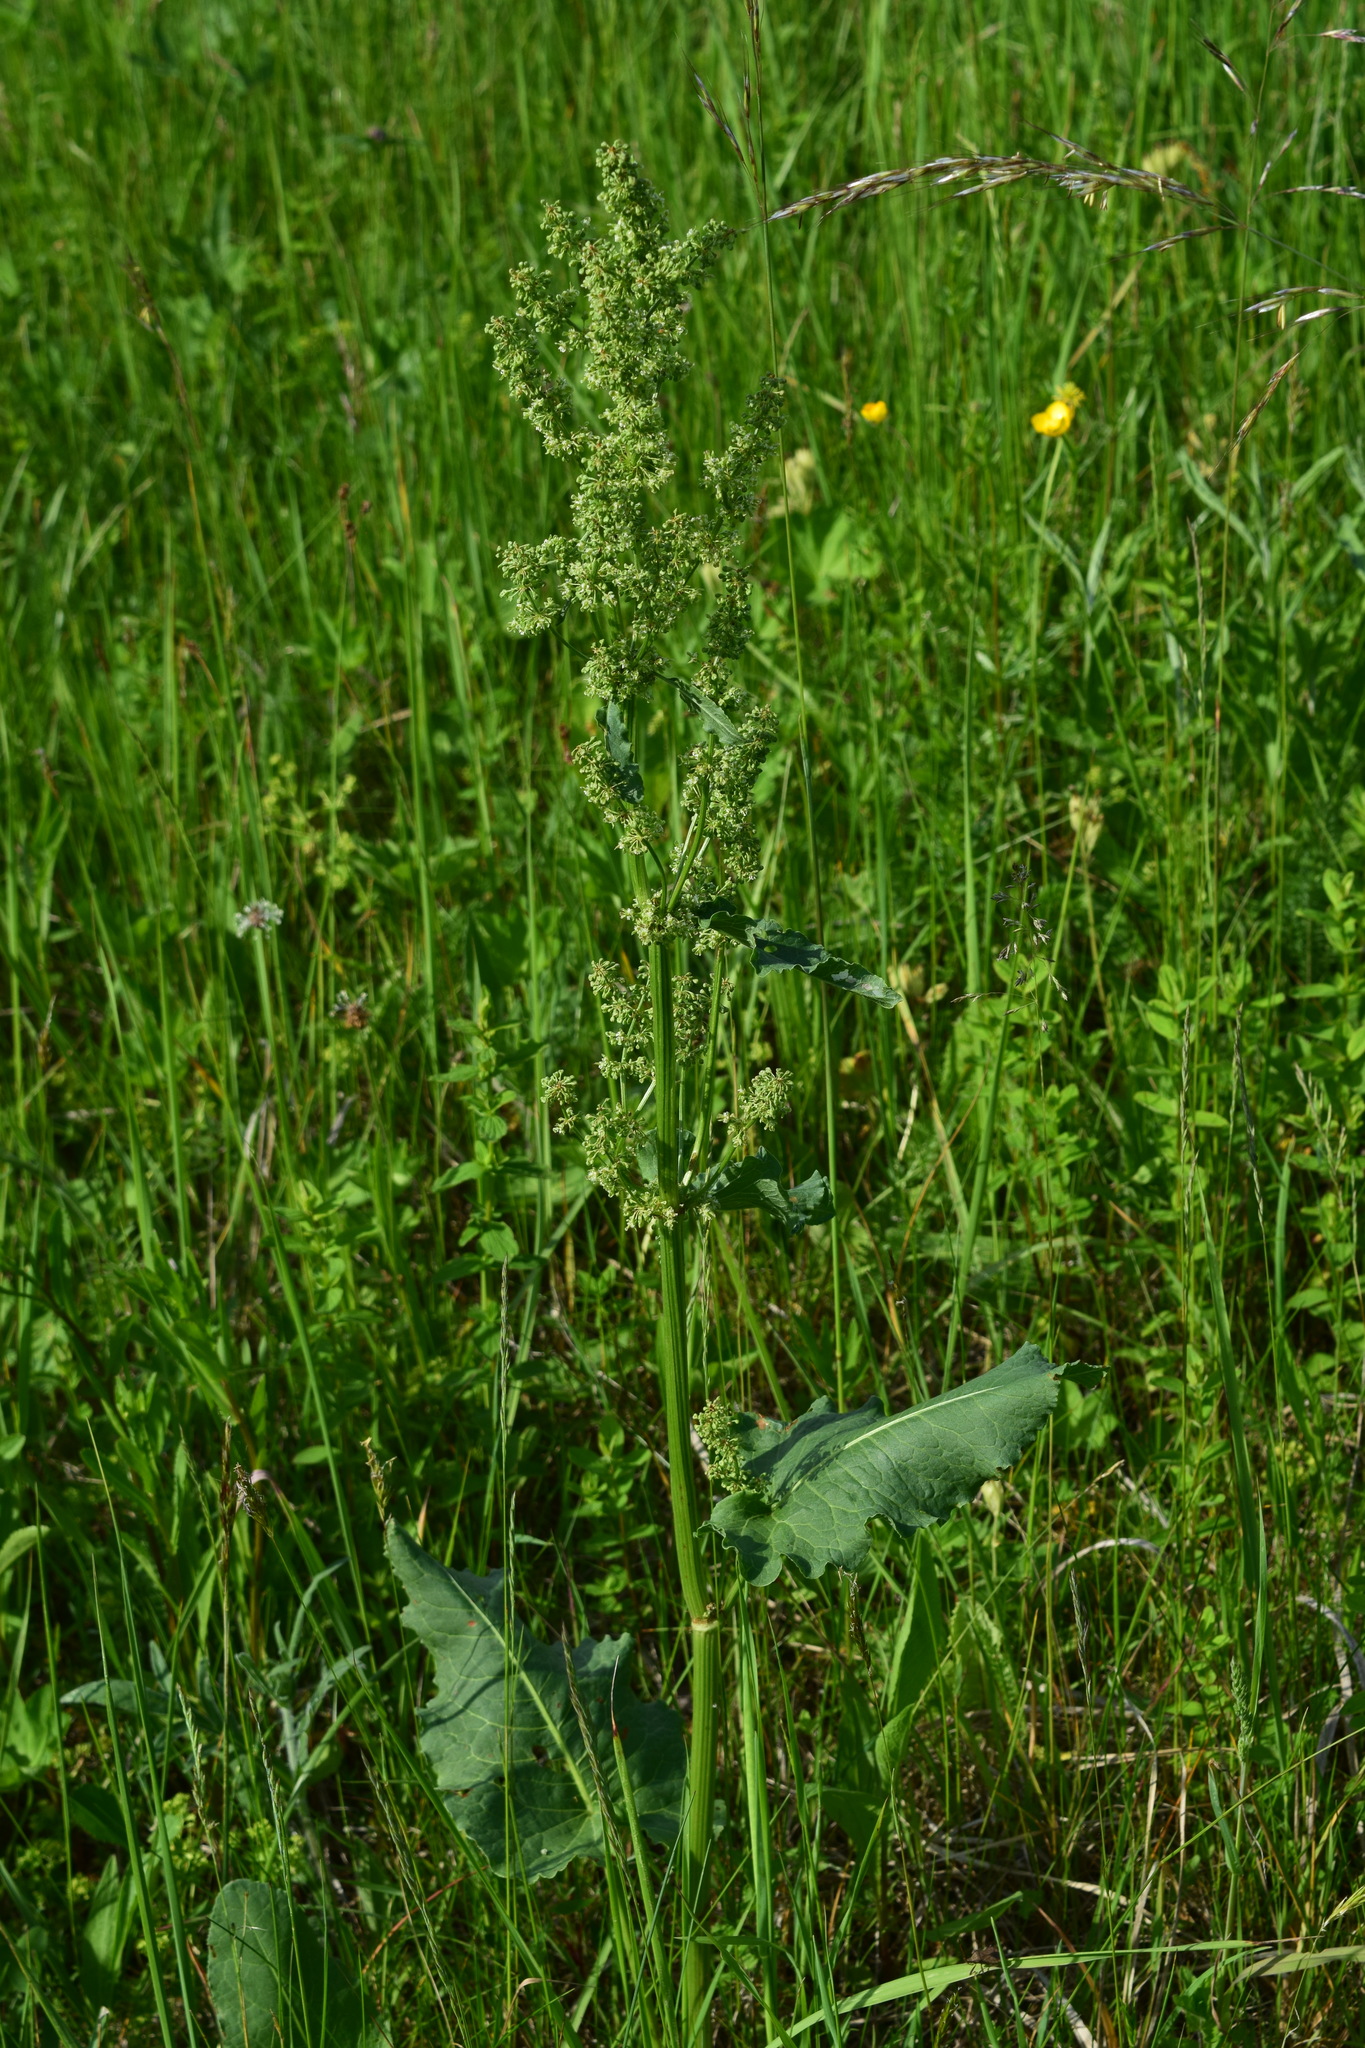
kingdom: Plantae
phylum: Tracheophyta
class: Magnoliopsida
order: Caryophyllales
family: Polygonaceae
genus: Rumex
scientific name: Rumex confertus
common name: Russian dock
